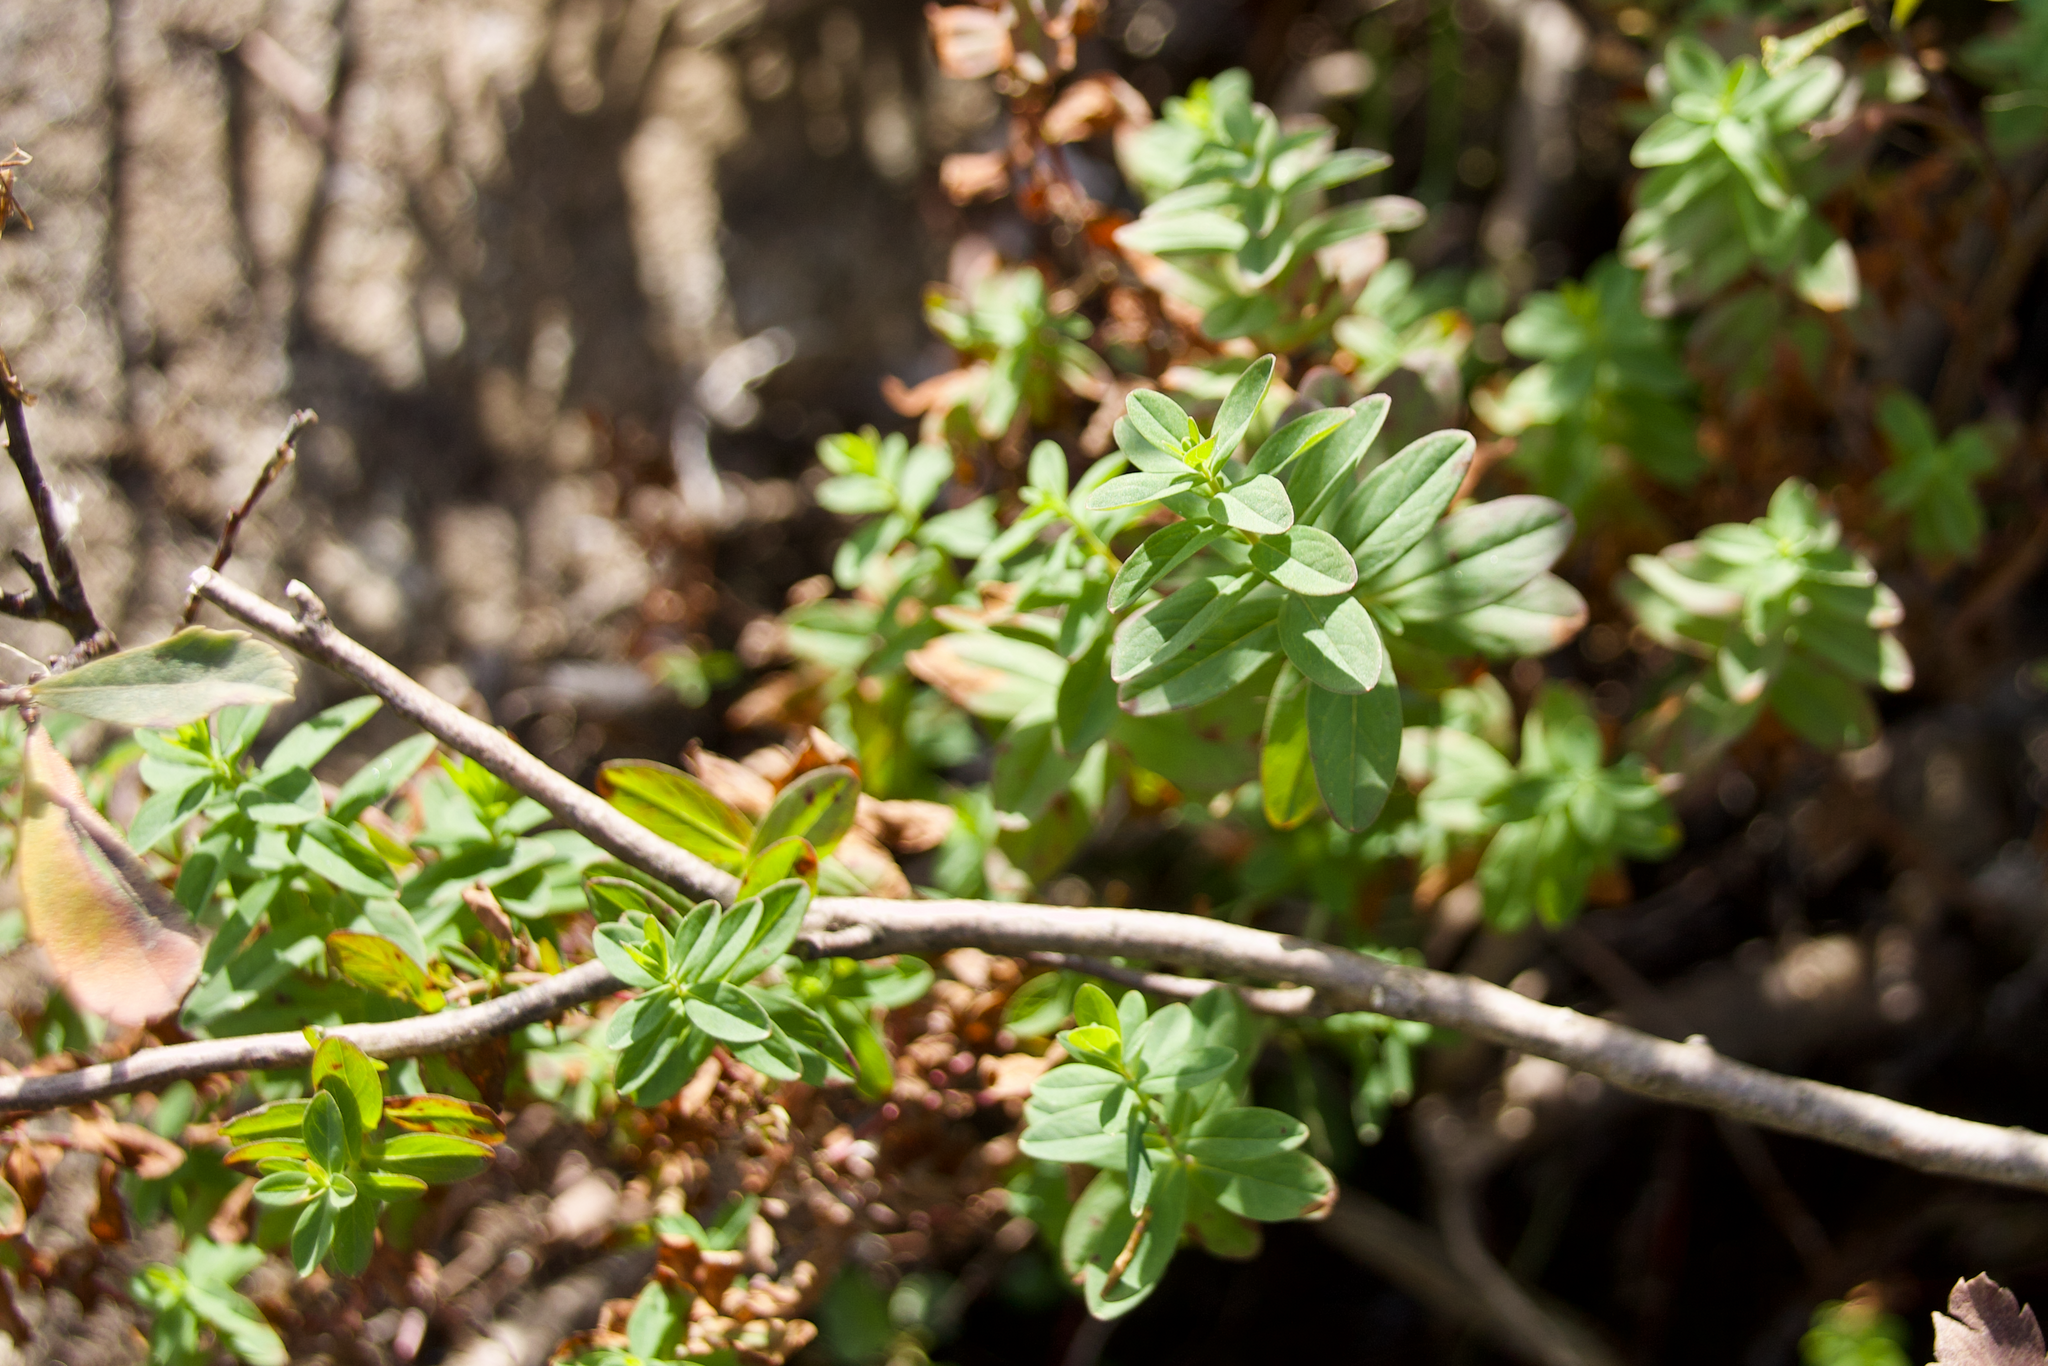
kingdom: Plantae
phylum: Tracheophyta
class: Magnoliopsida
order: Malpighiales
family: Hypericaceae
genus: Hypericum
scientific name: Hypericum
